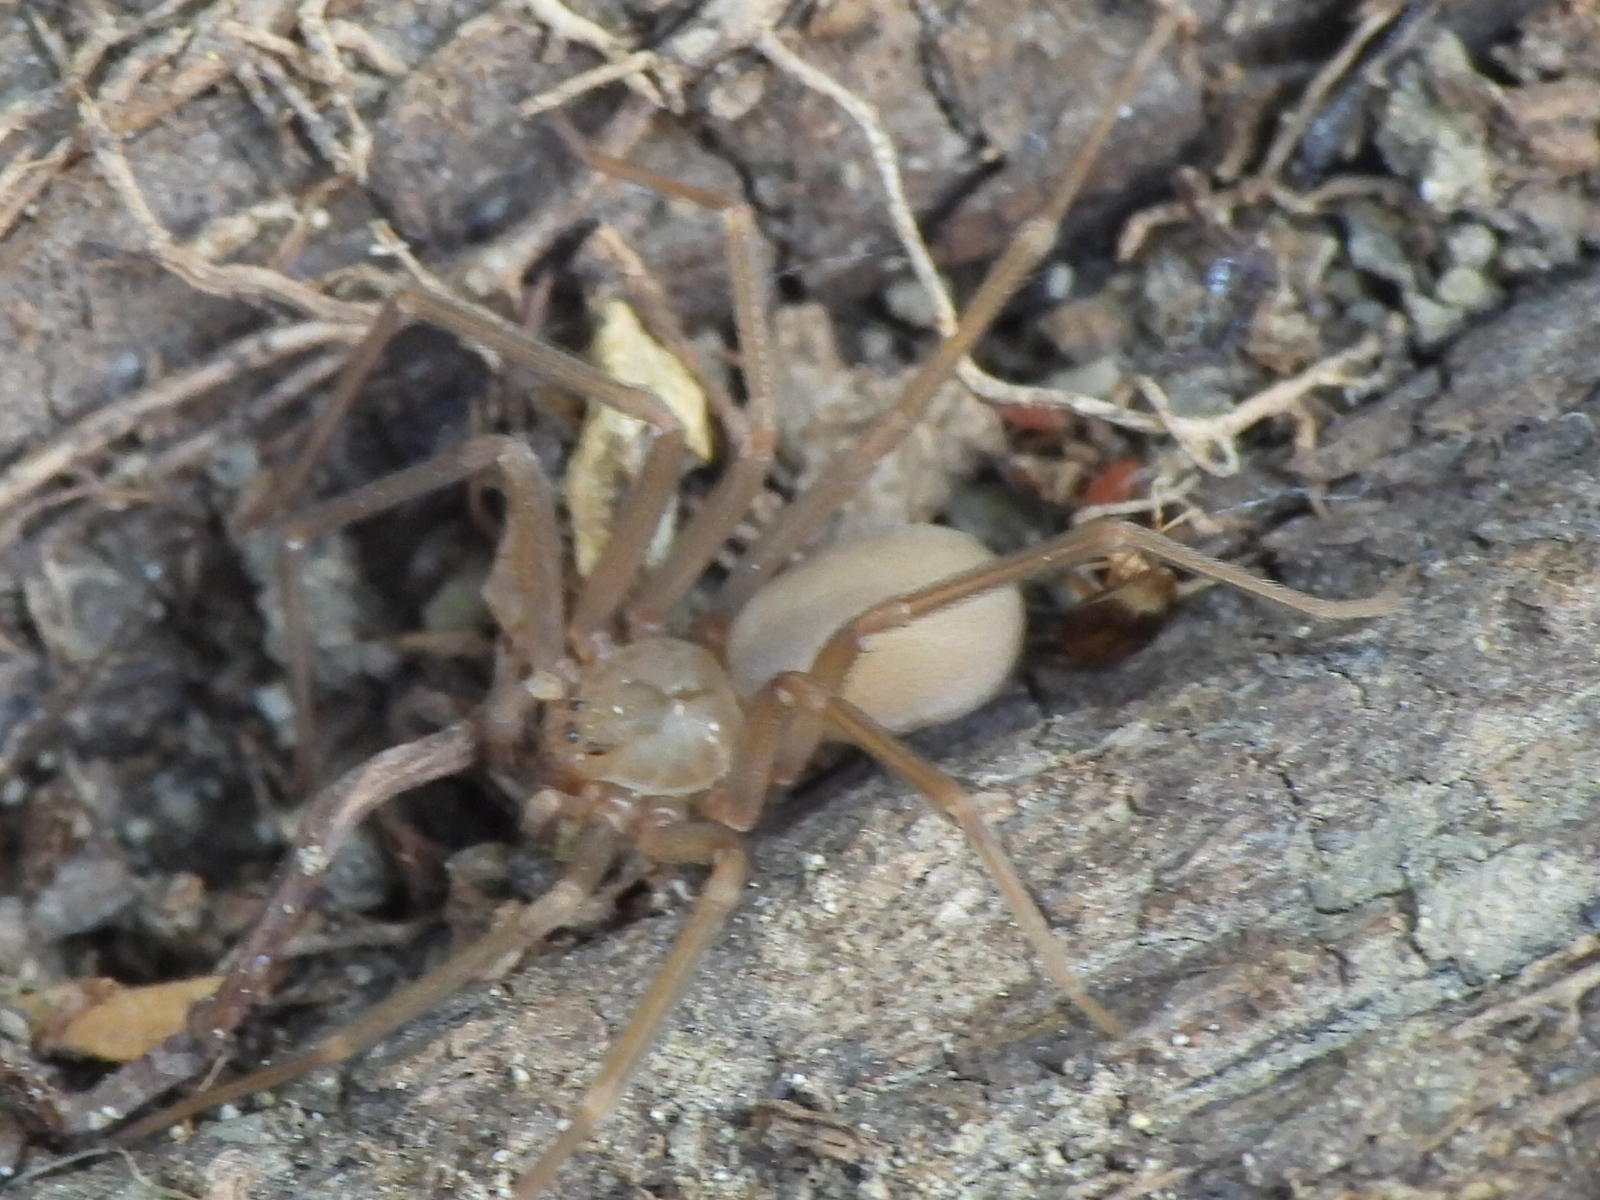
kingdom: Animalia
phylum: Arthropoda
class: Arachnida
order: Araneae
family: Sicariidae
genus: Loxosceles
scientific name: Loxosceles reclusa
